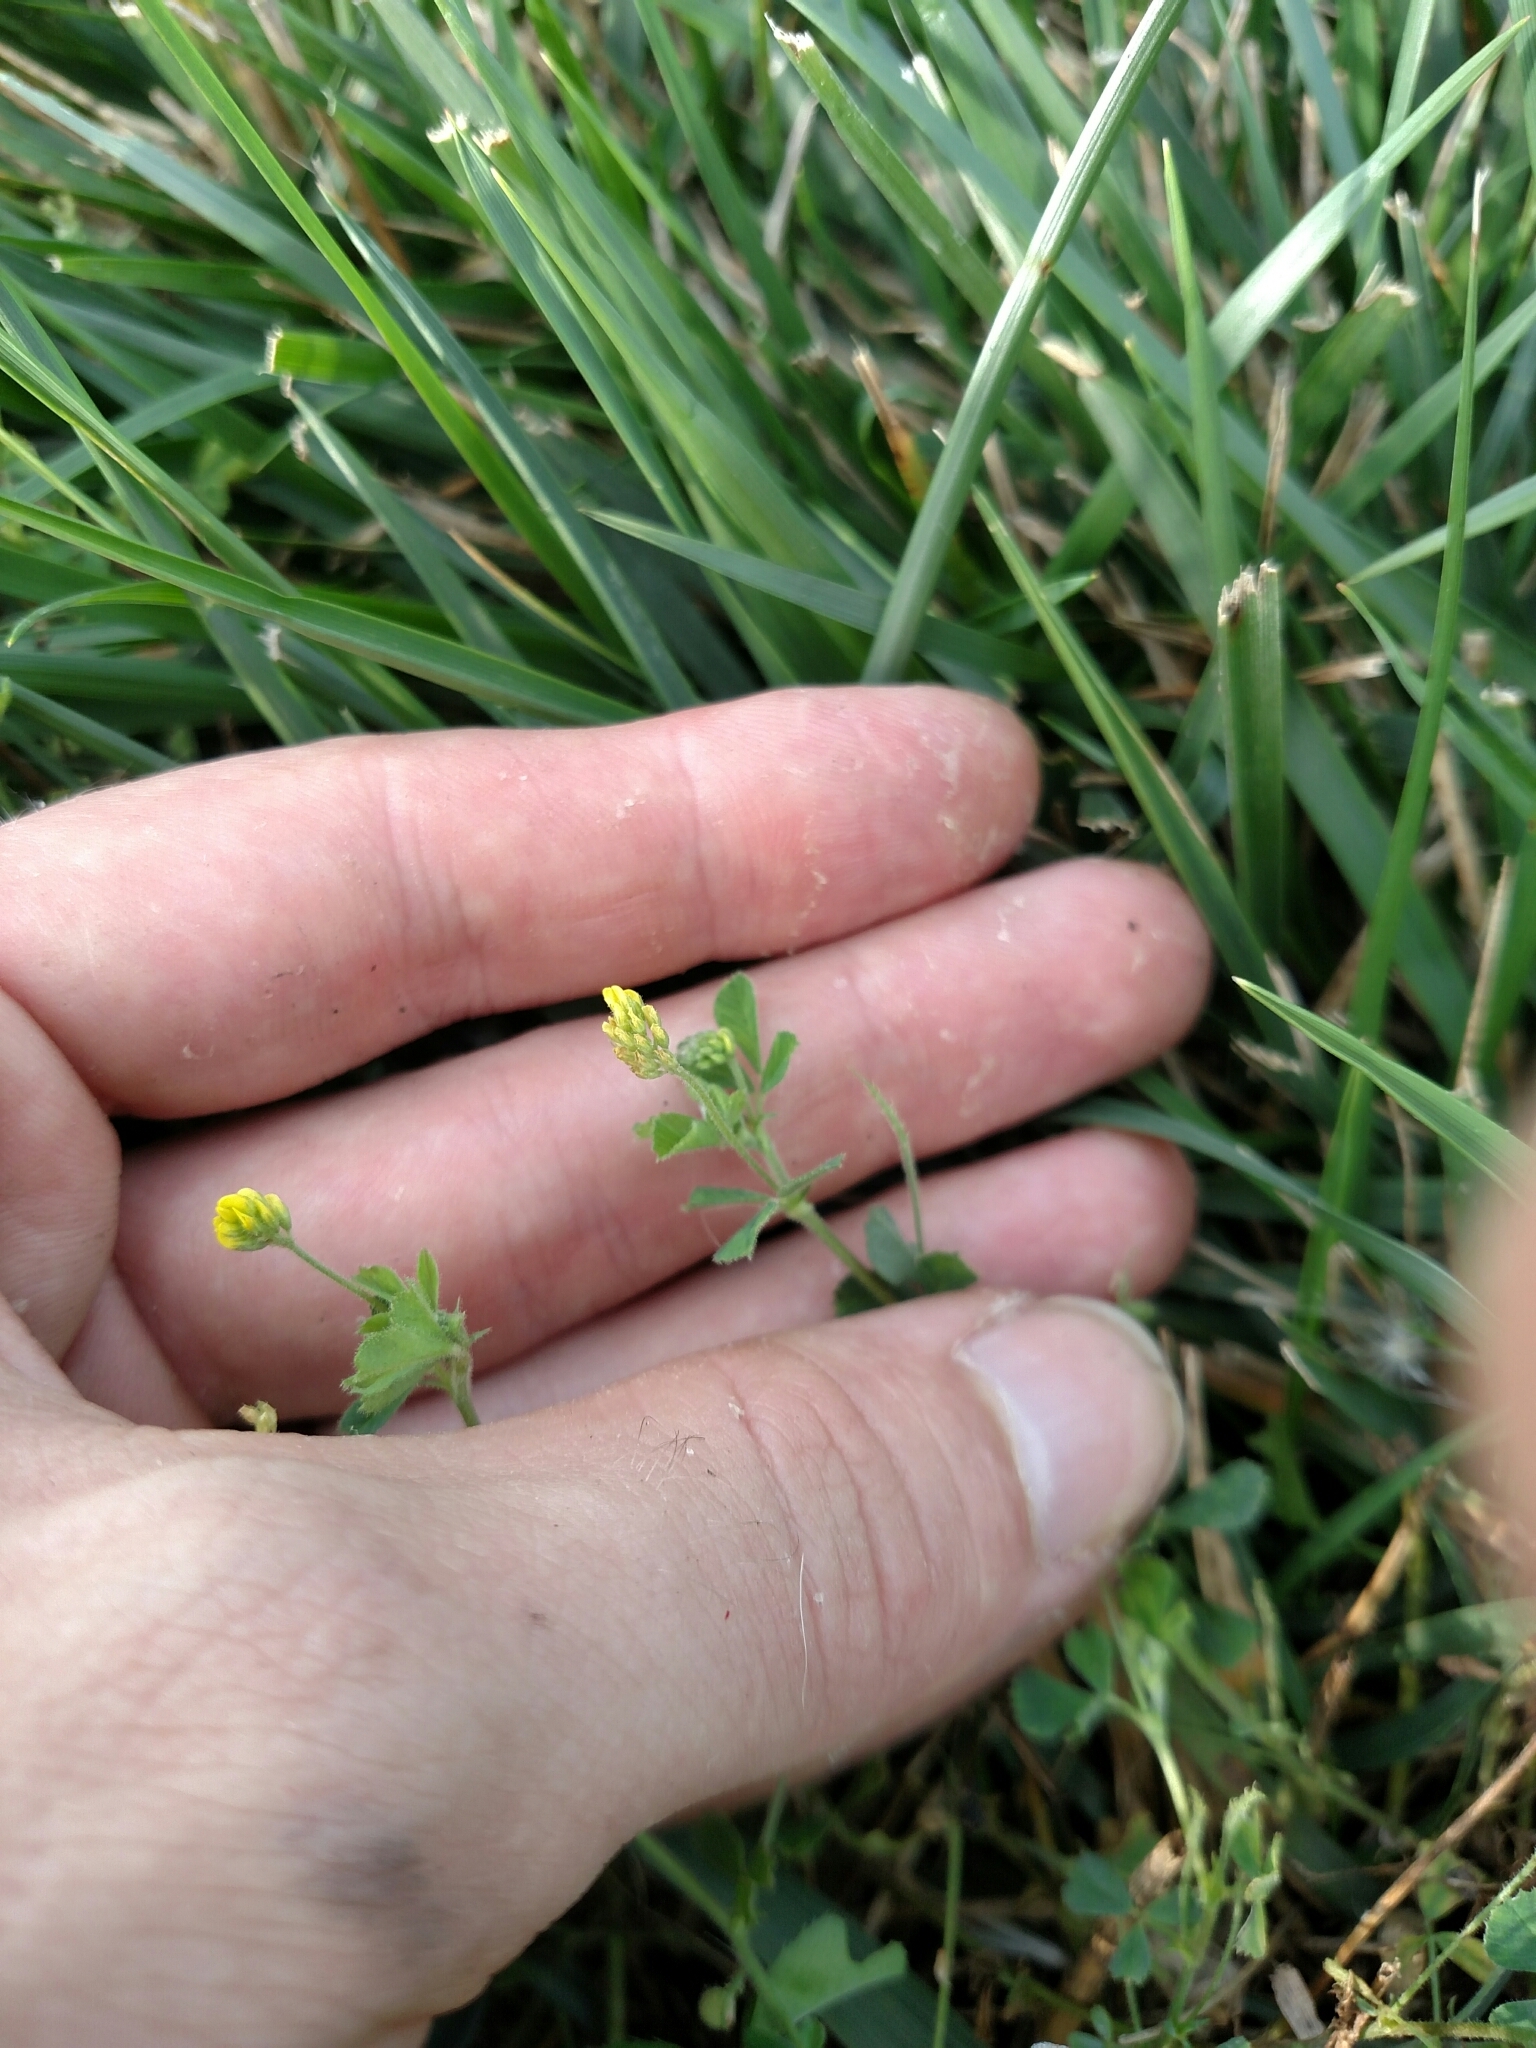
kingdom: Plantae
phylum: Tracheophyta
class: Magnoliopsida
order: Fabales
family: Fabaceae
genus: Medicago
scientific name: Medicago lupulina
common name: Black medick
